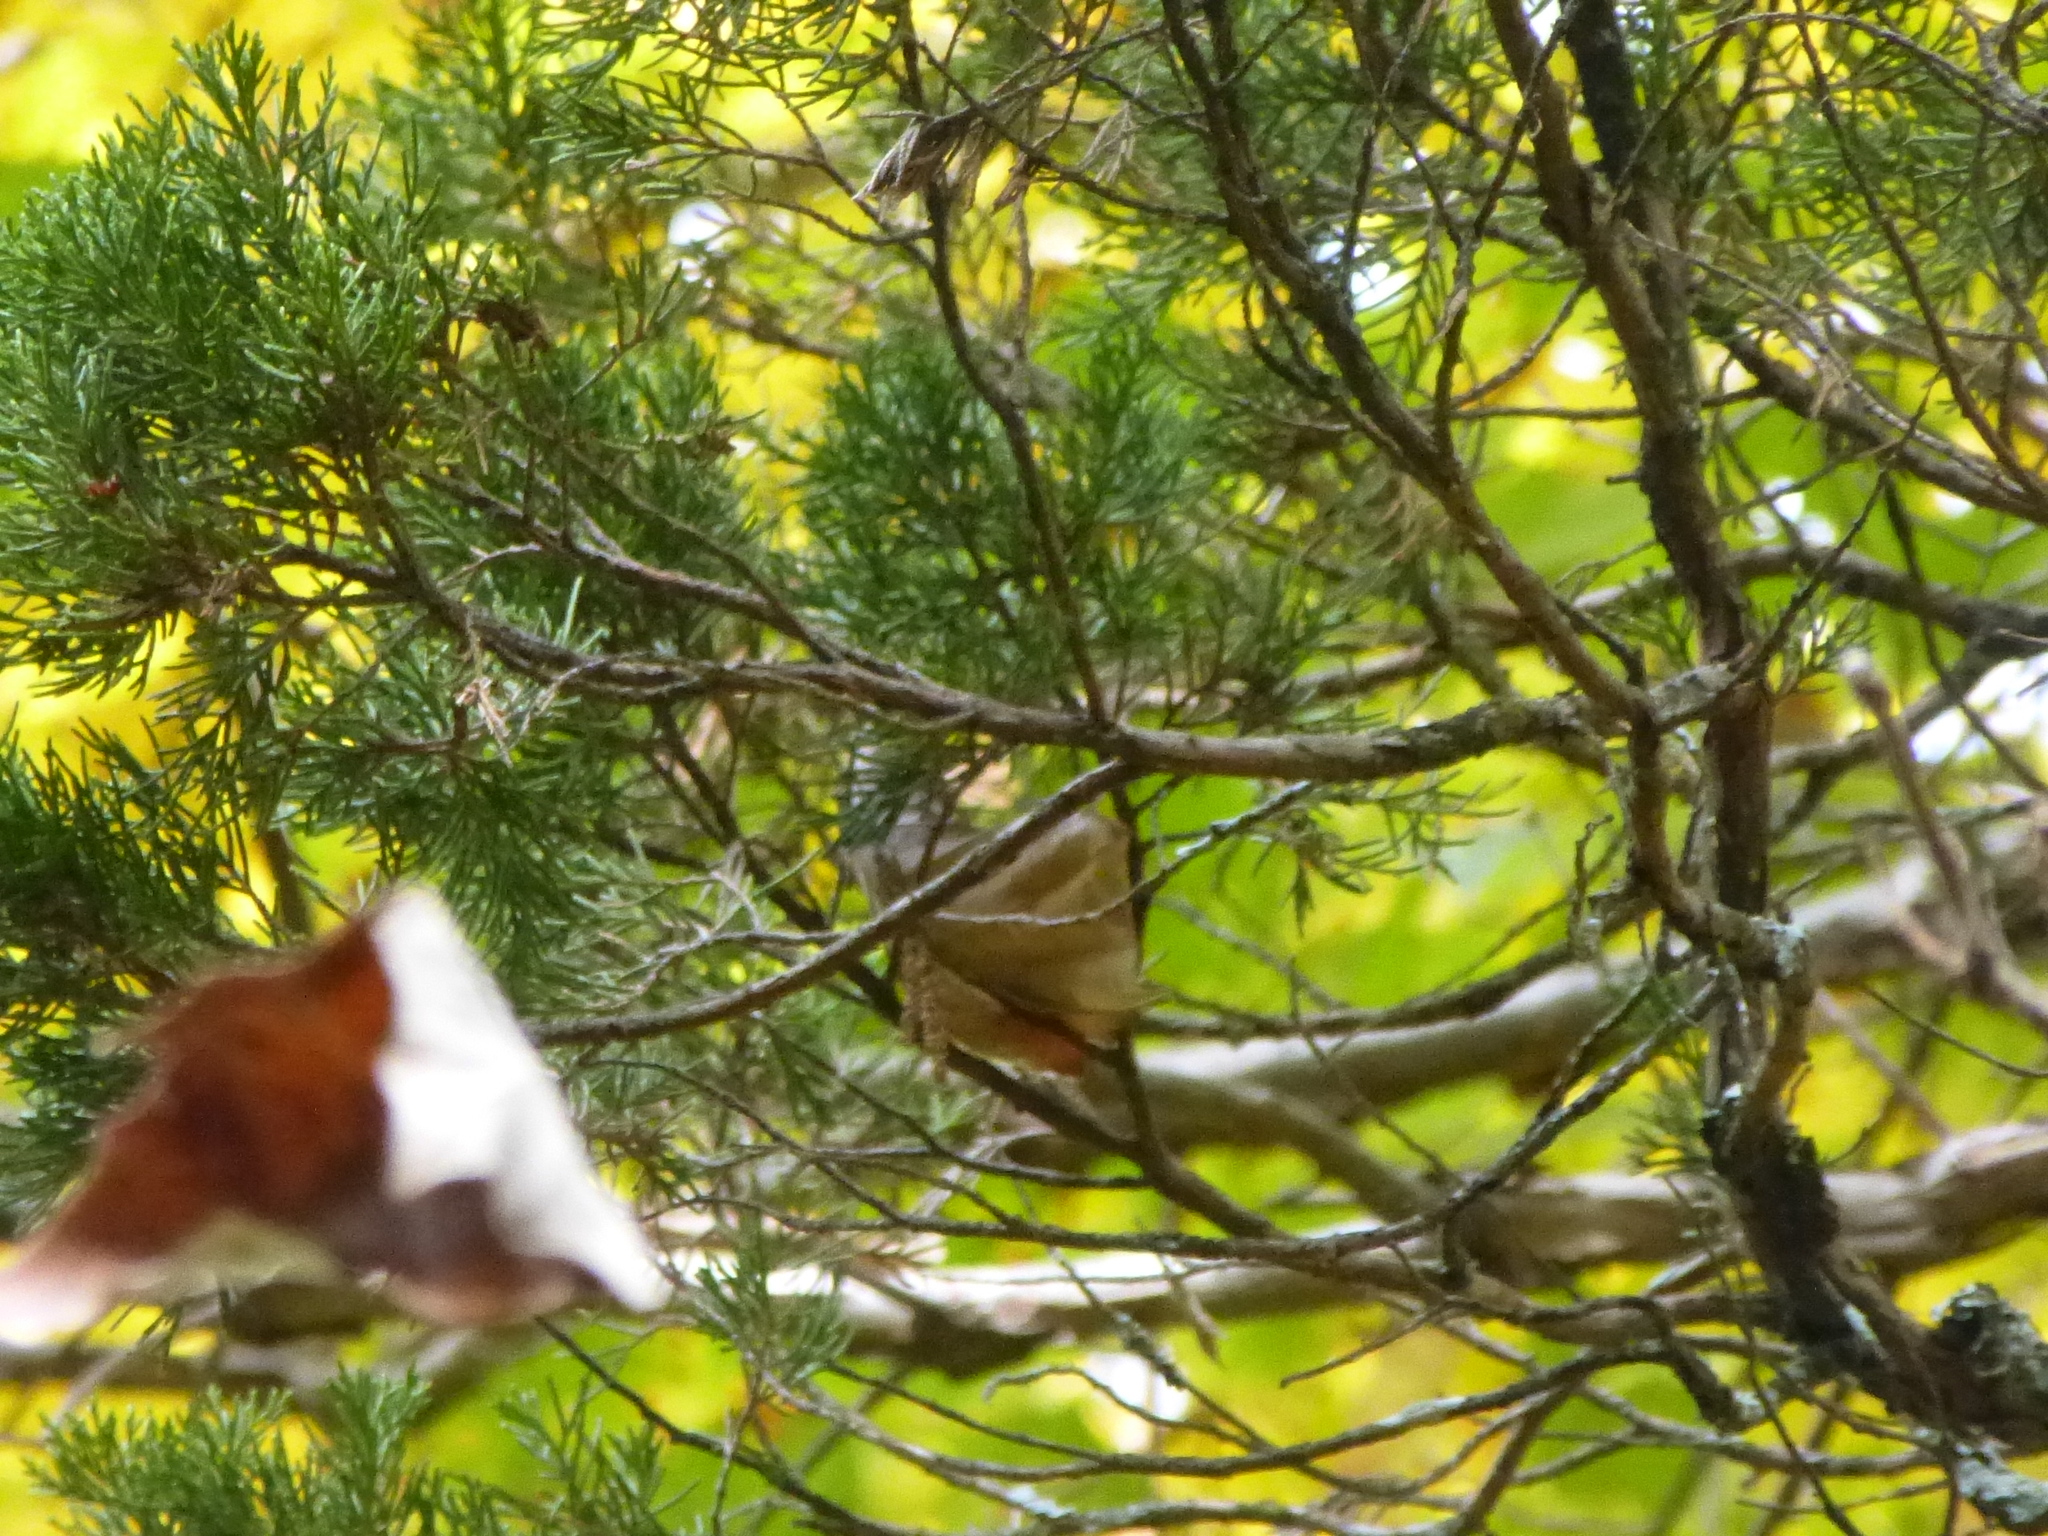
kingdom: Plantae
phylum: Tracheophyta
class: Pinopsida
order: Pinales
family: Cupressaceae
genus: Juniperus
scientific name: Juniperus virginiana
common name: Red juniper
